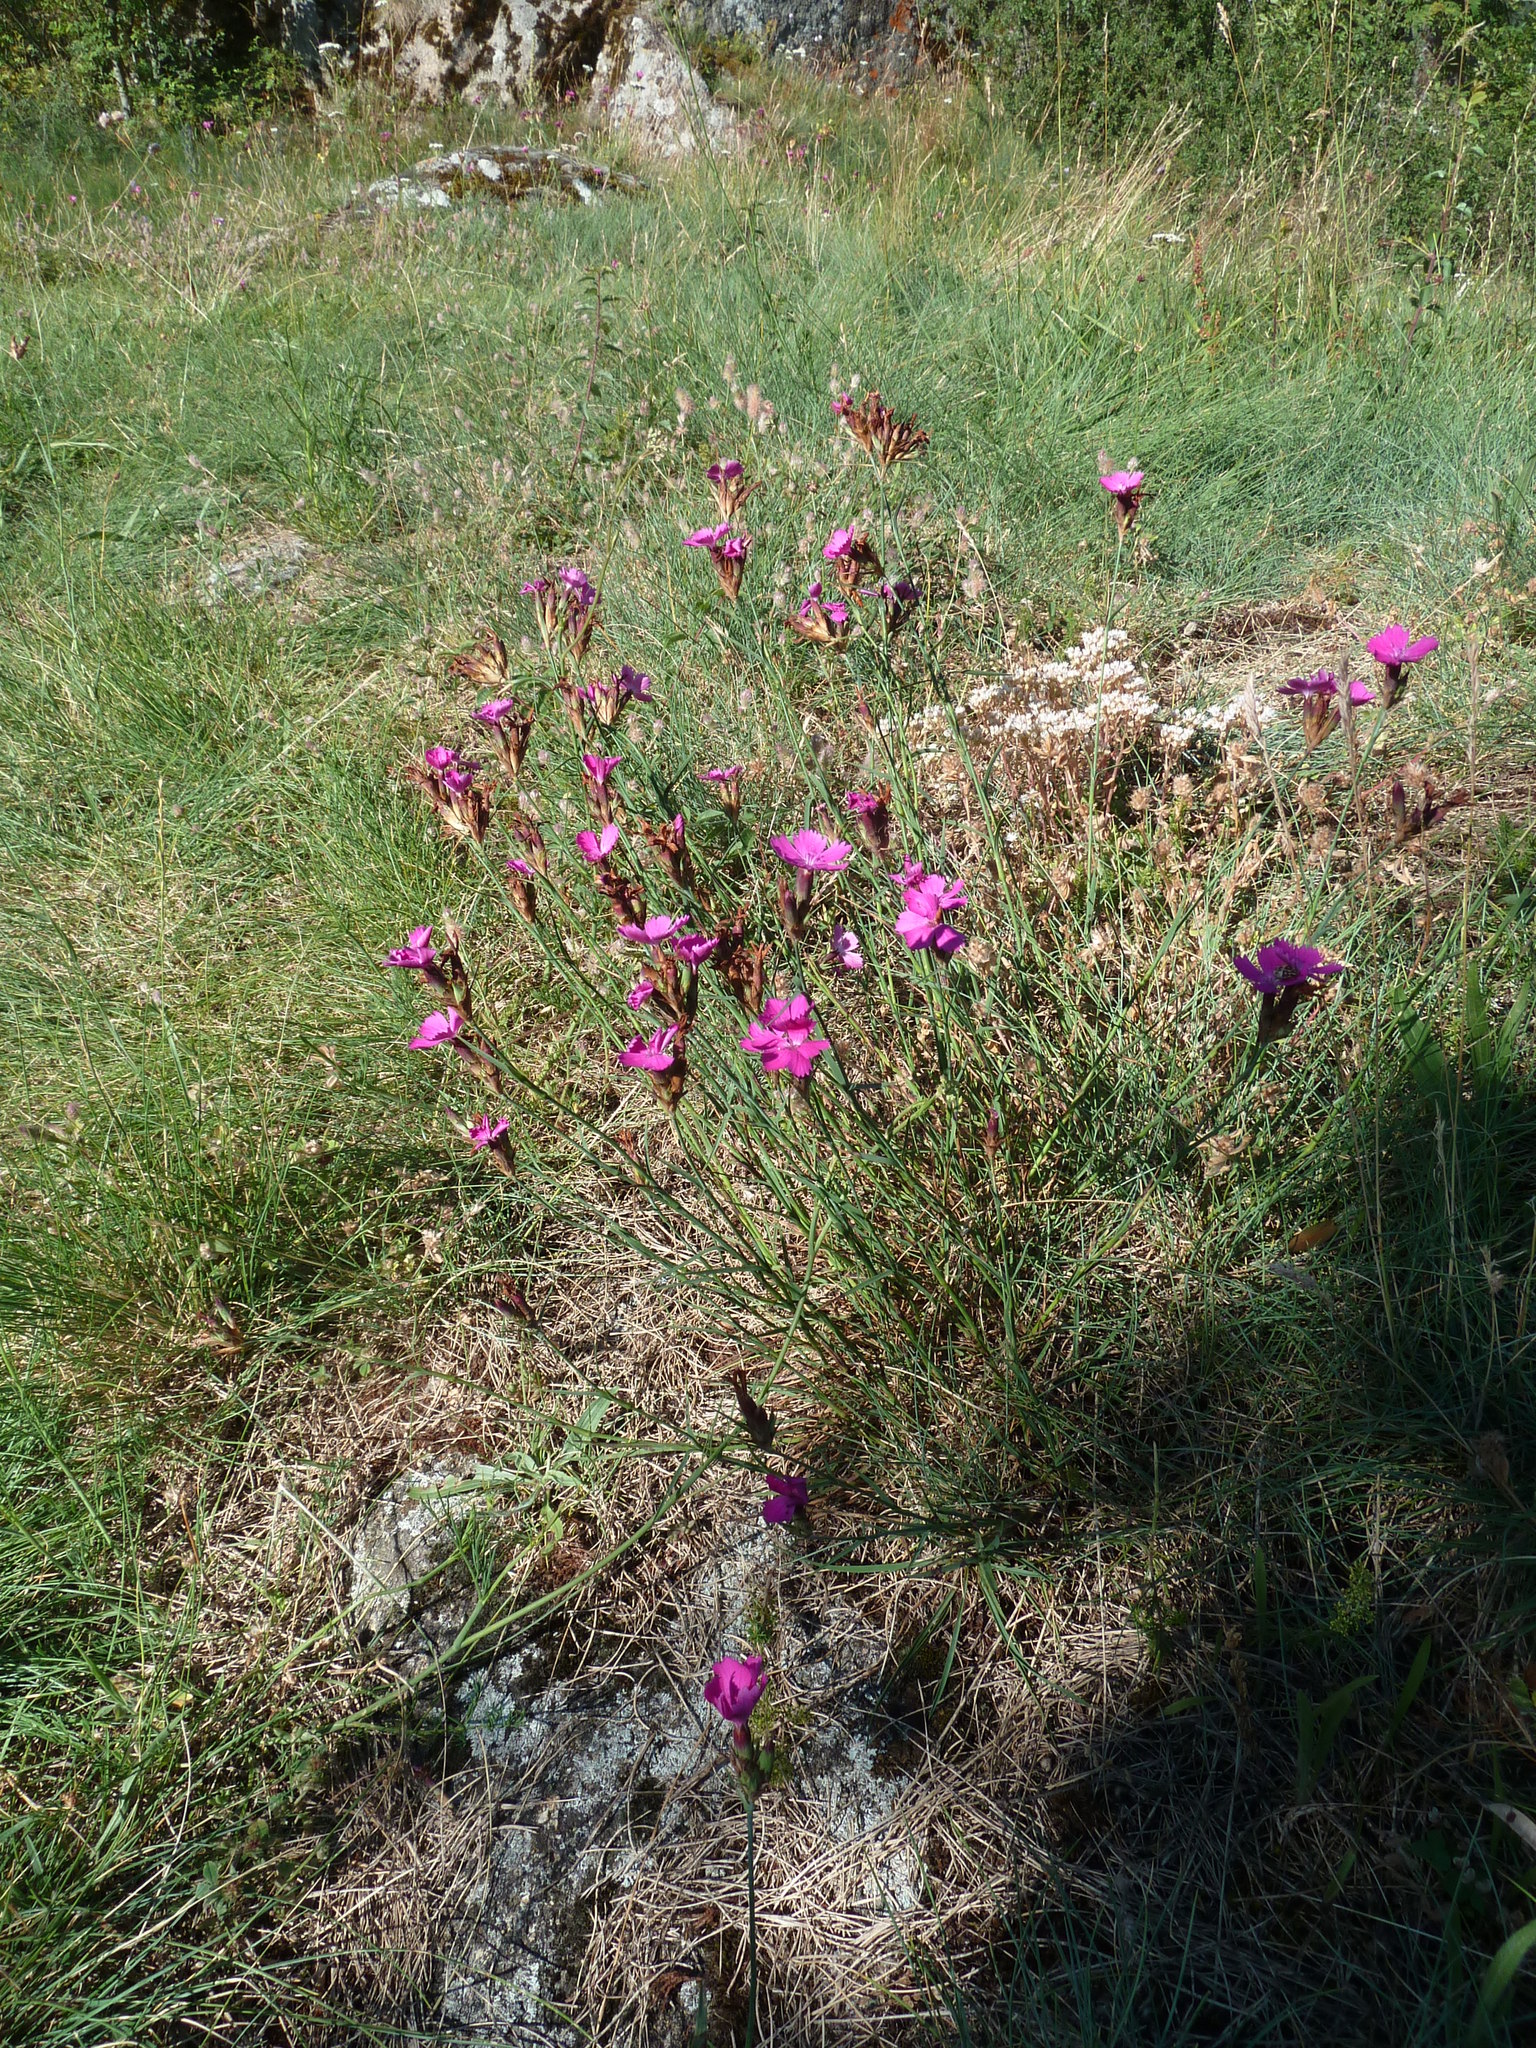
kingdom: Plantae
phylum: Tracheophyta
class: Magnoliopsida
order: Caryophyllales
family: Caryophyllaceae
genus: Dianthus
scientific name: Dianthus carthusianorum
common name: Carthusian pink
